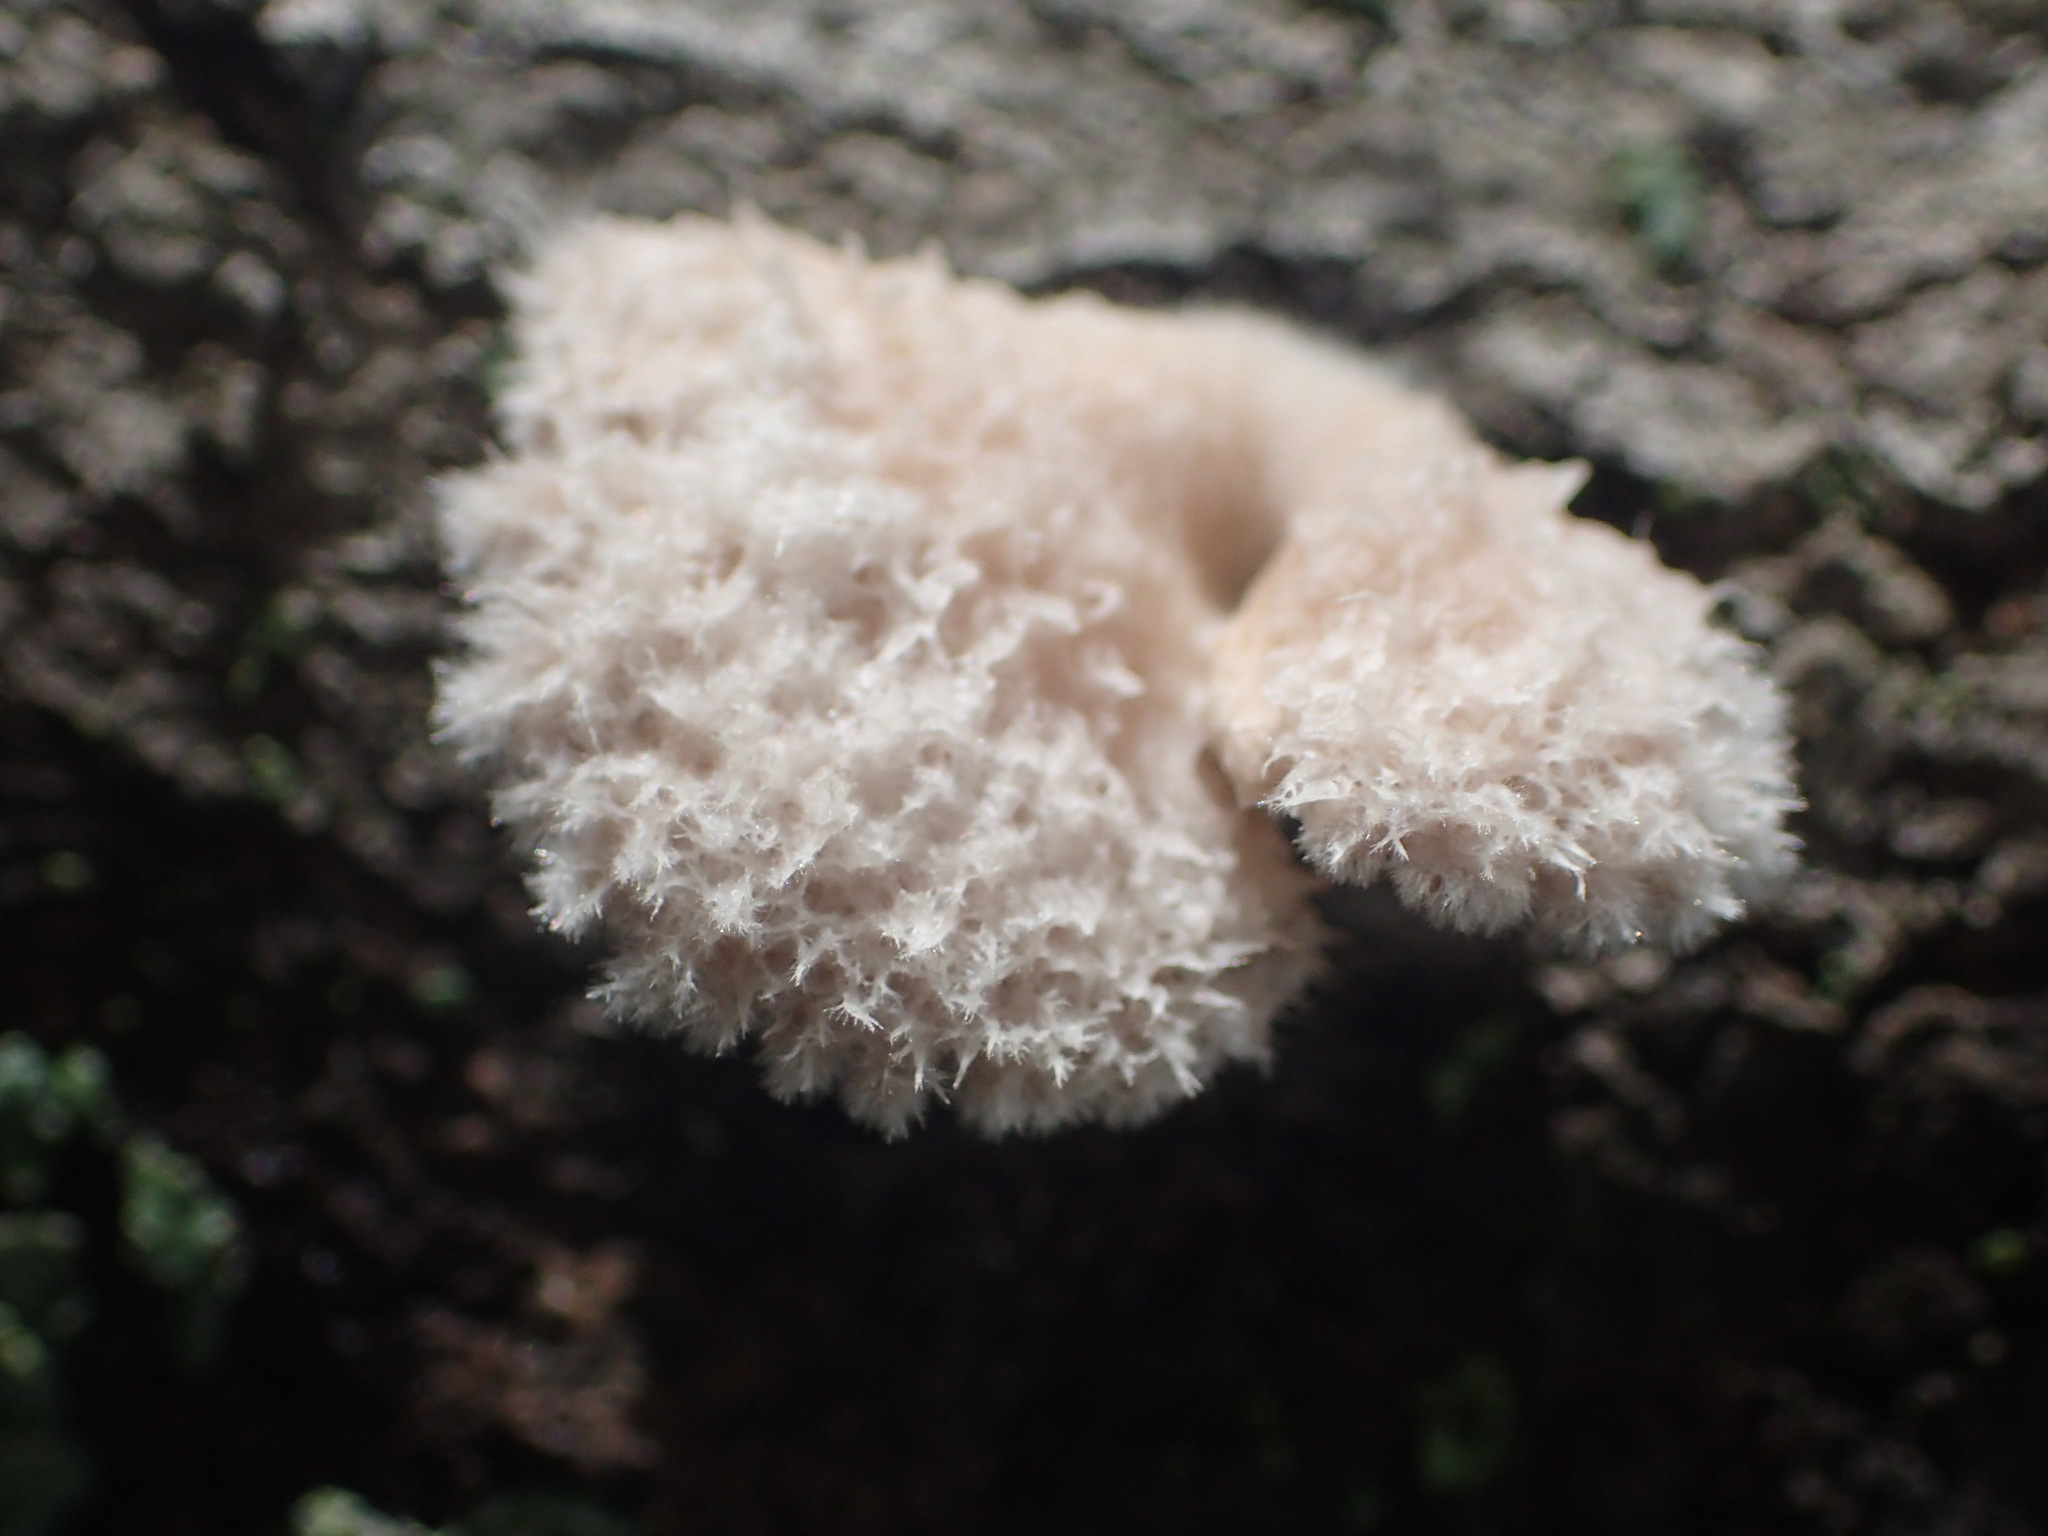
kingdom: Fungi
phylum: Basidiomycota
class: Agaricomycetes
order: Agaricales
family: Schizophyllaceae
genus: Schizophyllum
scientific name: Schizophyllum commune
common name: Common porecrust
